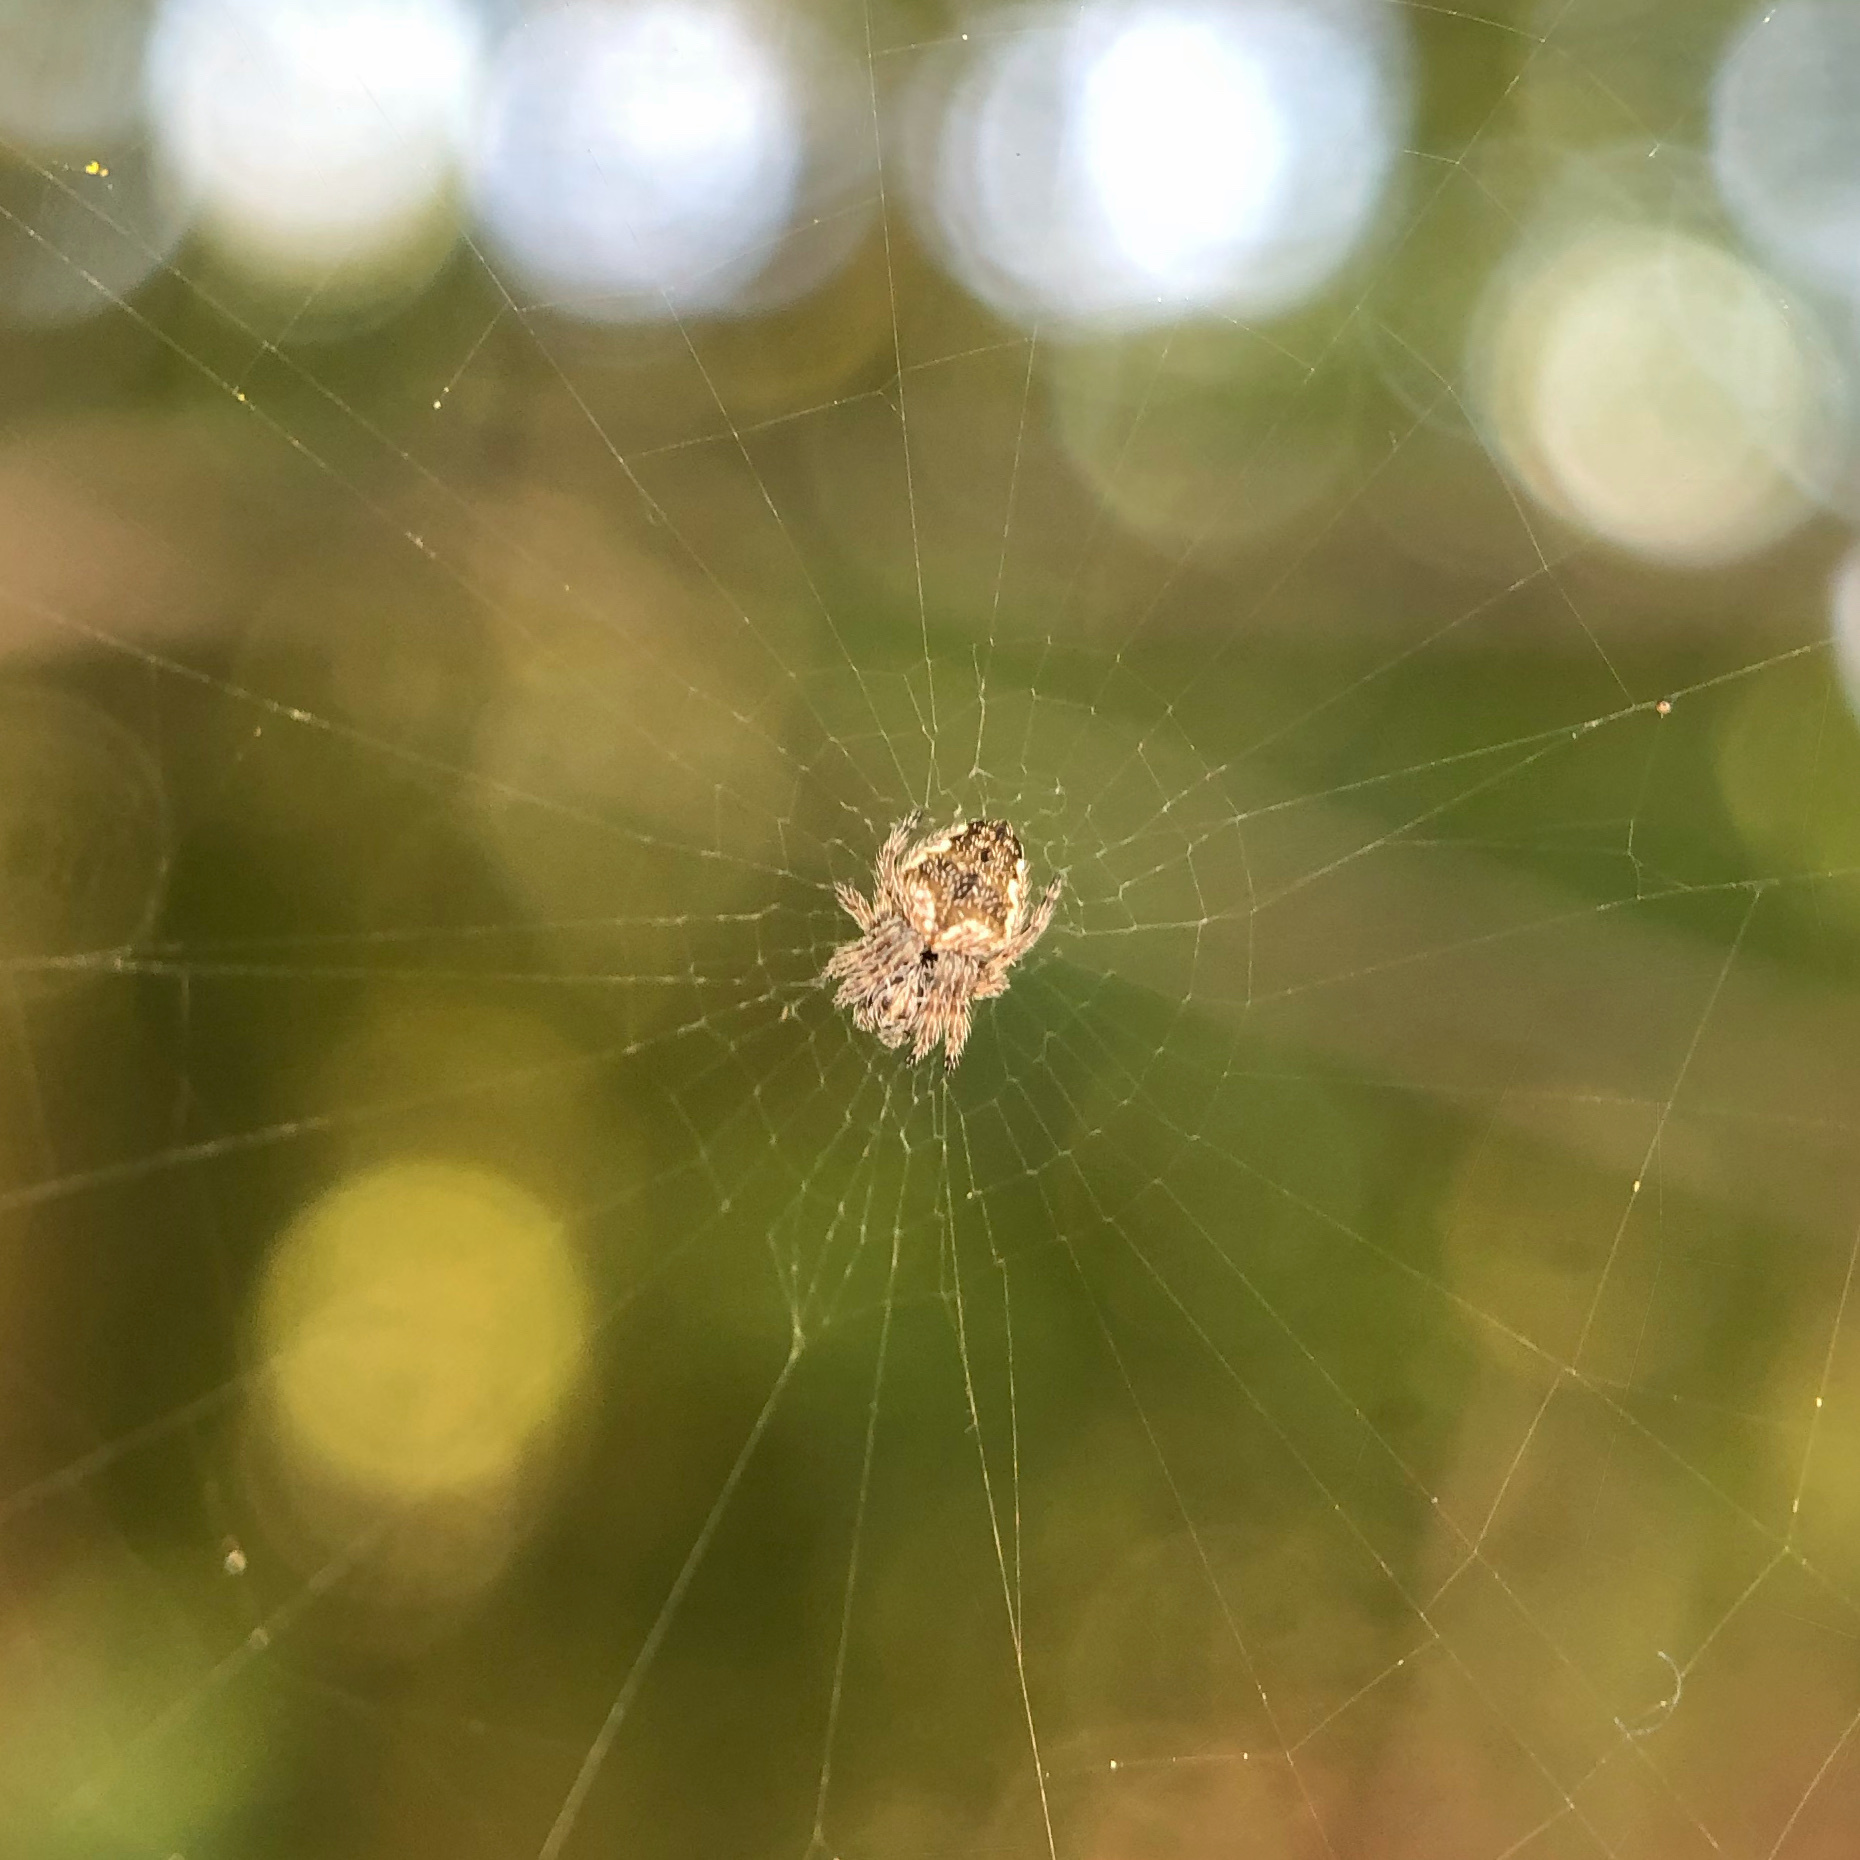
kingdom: Animalia
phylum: Arthropoda
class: Arachnida
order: Araneae
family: Araneidae
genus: Eriophora
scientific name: Eriophora pustulosa
